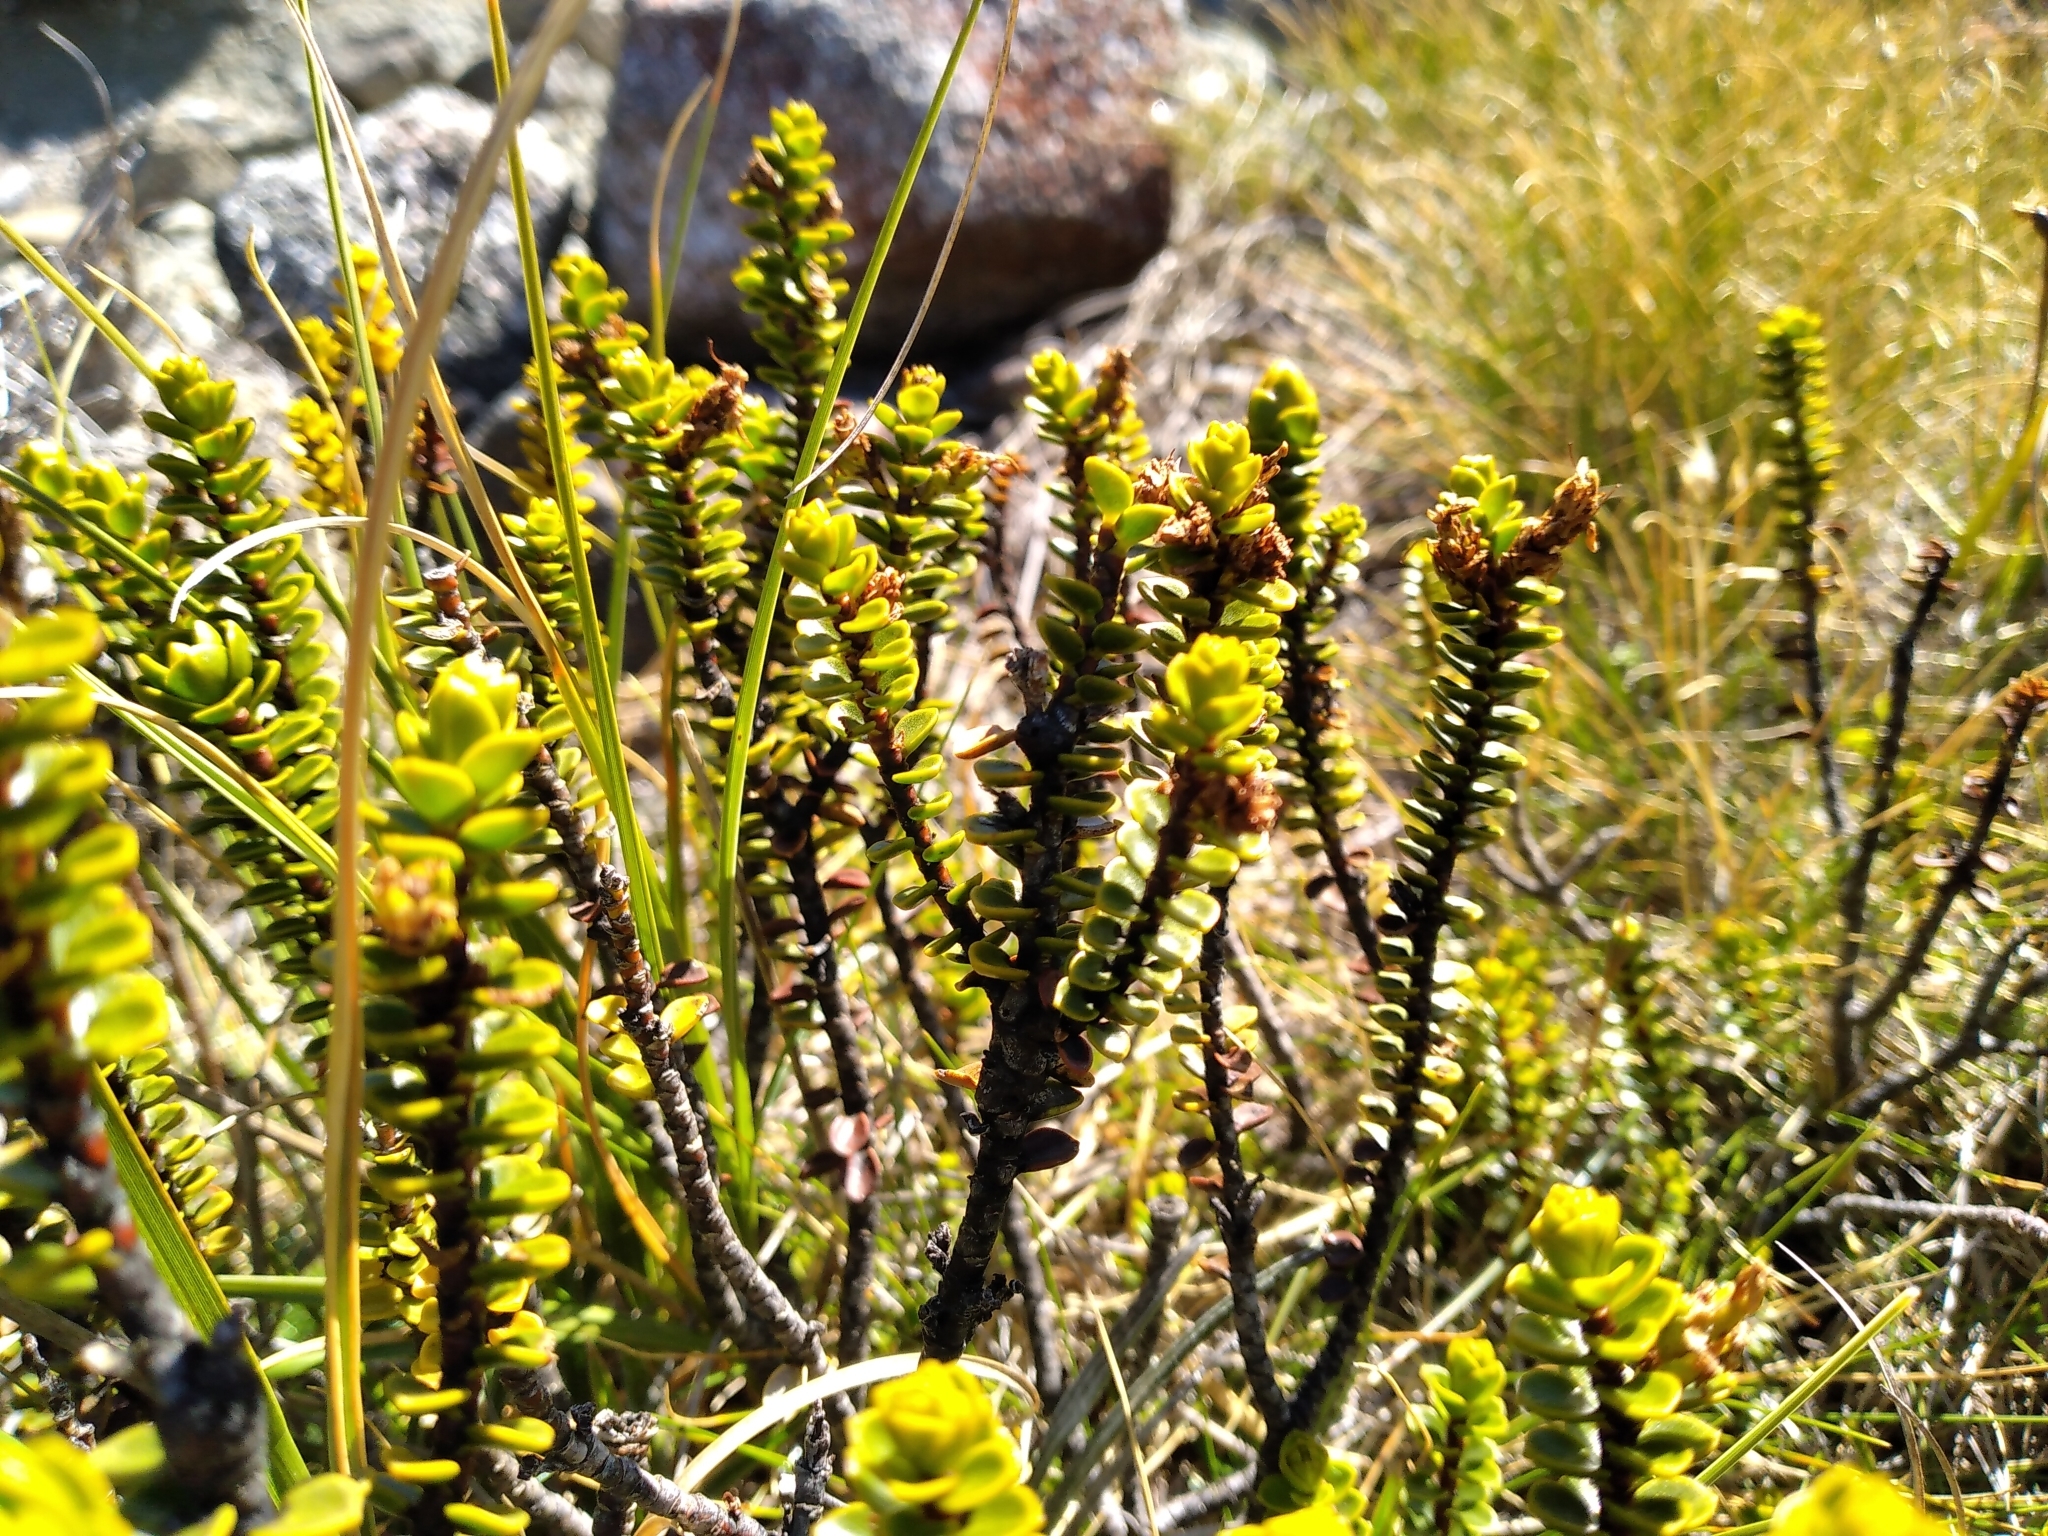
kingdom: Plantae
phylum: Tracheophyta
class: Magnoliopsida
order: Lamiales
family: Plantaginaceae
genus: Veronica
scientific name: Veronica pauciramosa
